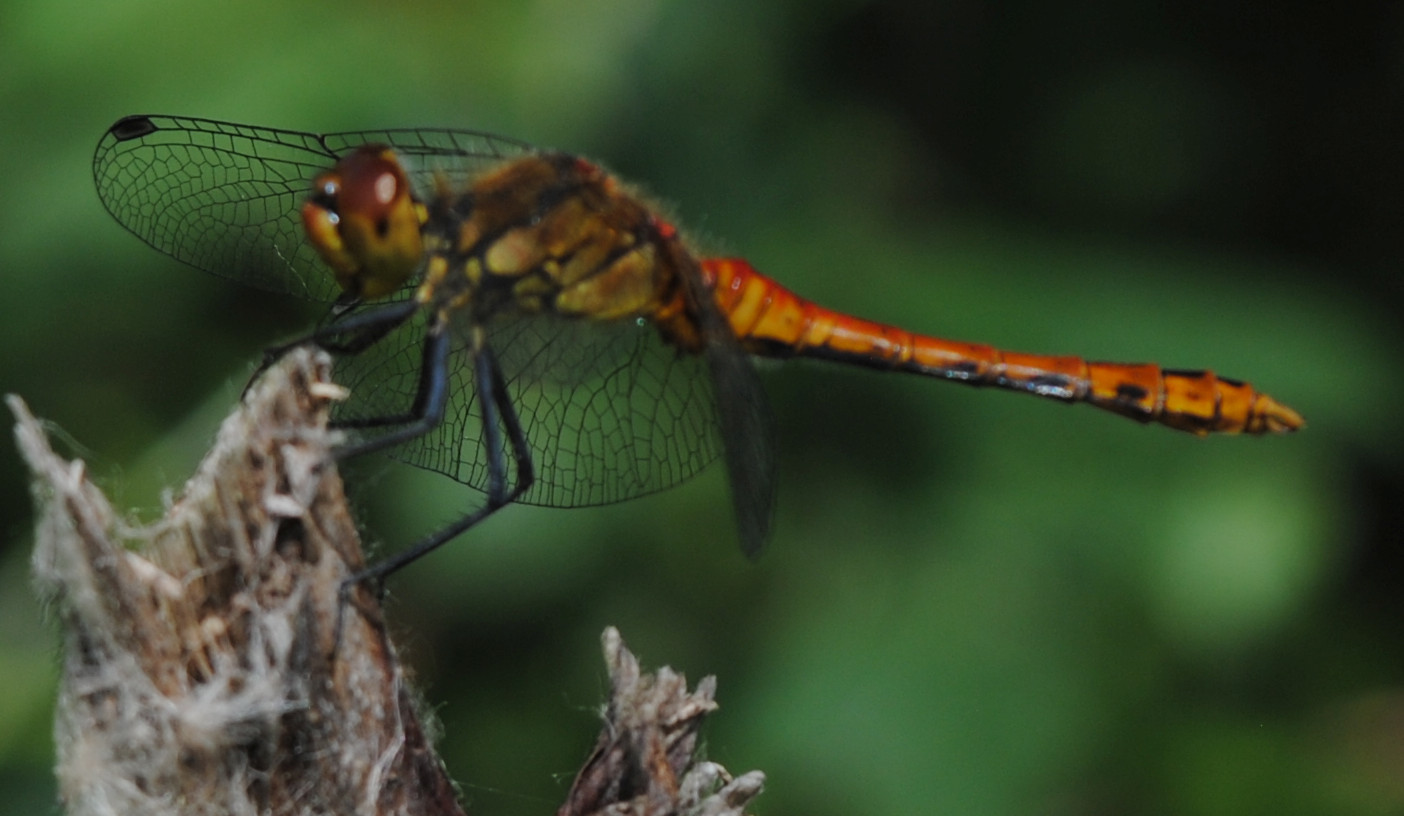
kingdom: Animalia
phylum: Arthropoda
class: Insecta
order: Odonata
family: Libellulidae
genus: Sympetrum
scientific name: Sympetrum sanguineum
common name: Ruddy darter
